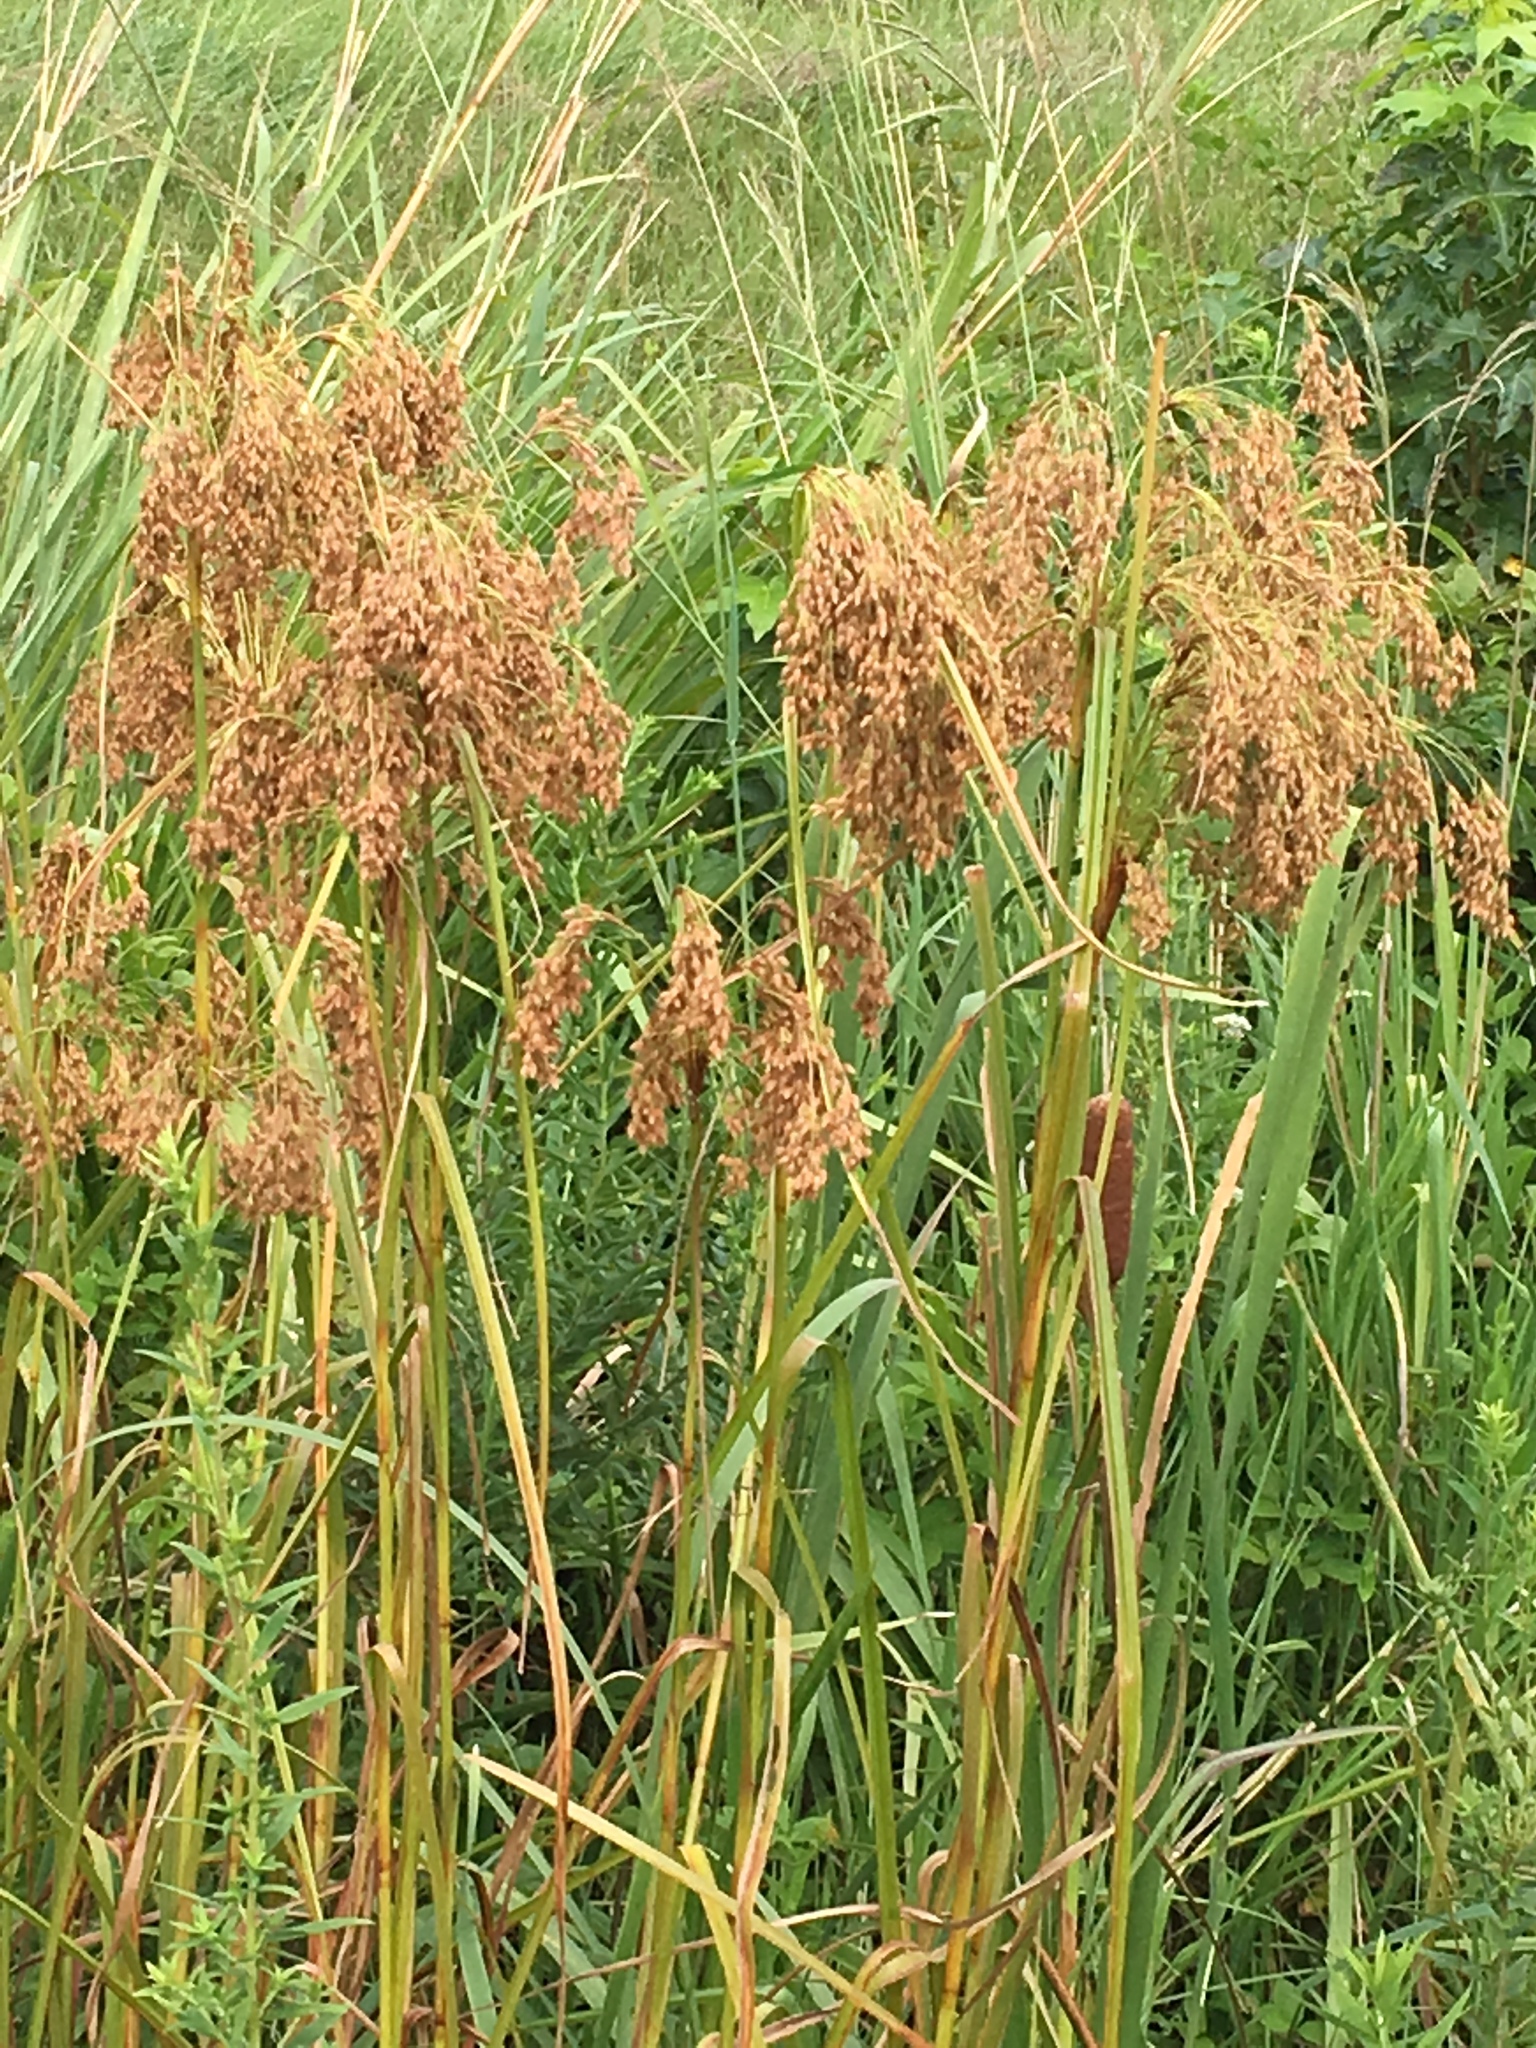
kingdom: Plantae
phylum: Tracheophyta
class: Liliopsida
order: Poales
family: Cyperaceae
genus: Scirpus
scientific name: Scirpus cyperinus
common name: Black-sheathed bulrush
